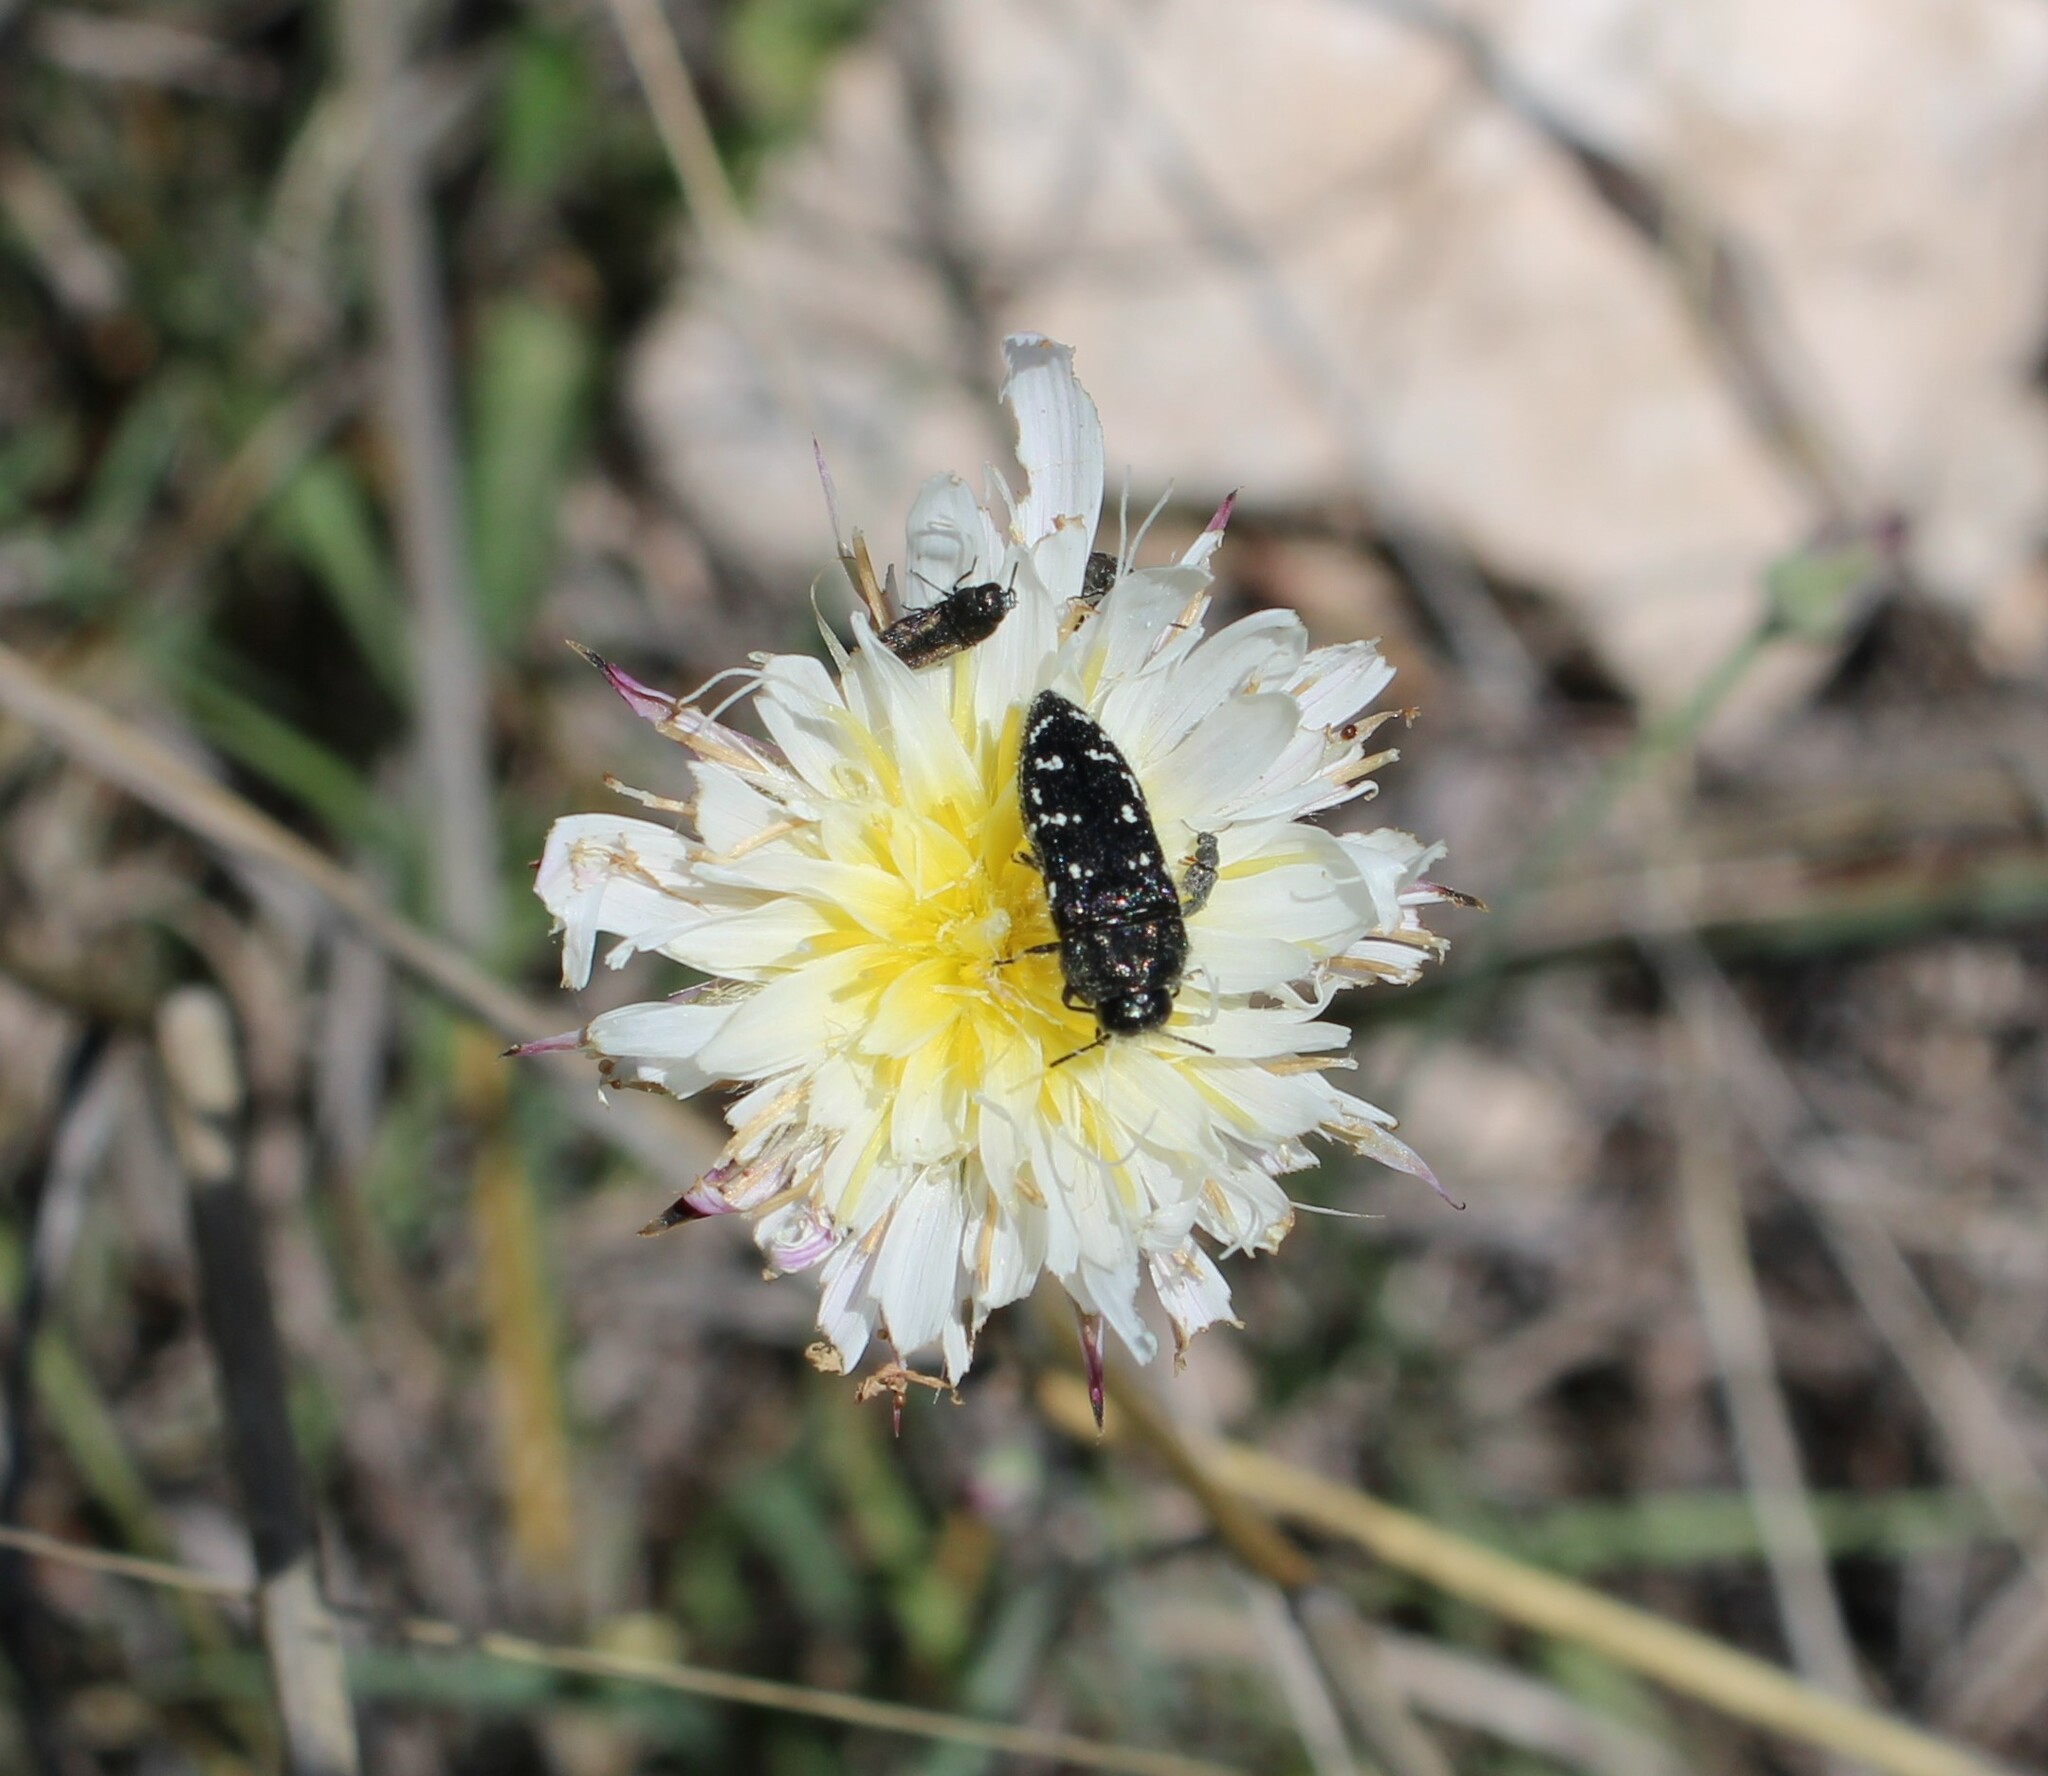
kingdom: Animalia
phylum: Arthropoda
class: Insecta
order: Coleoptera
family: Buprestidae
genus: Acmaeodera
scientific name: Acmaeodera ornatoides
